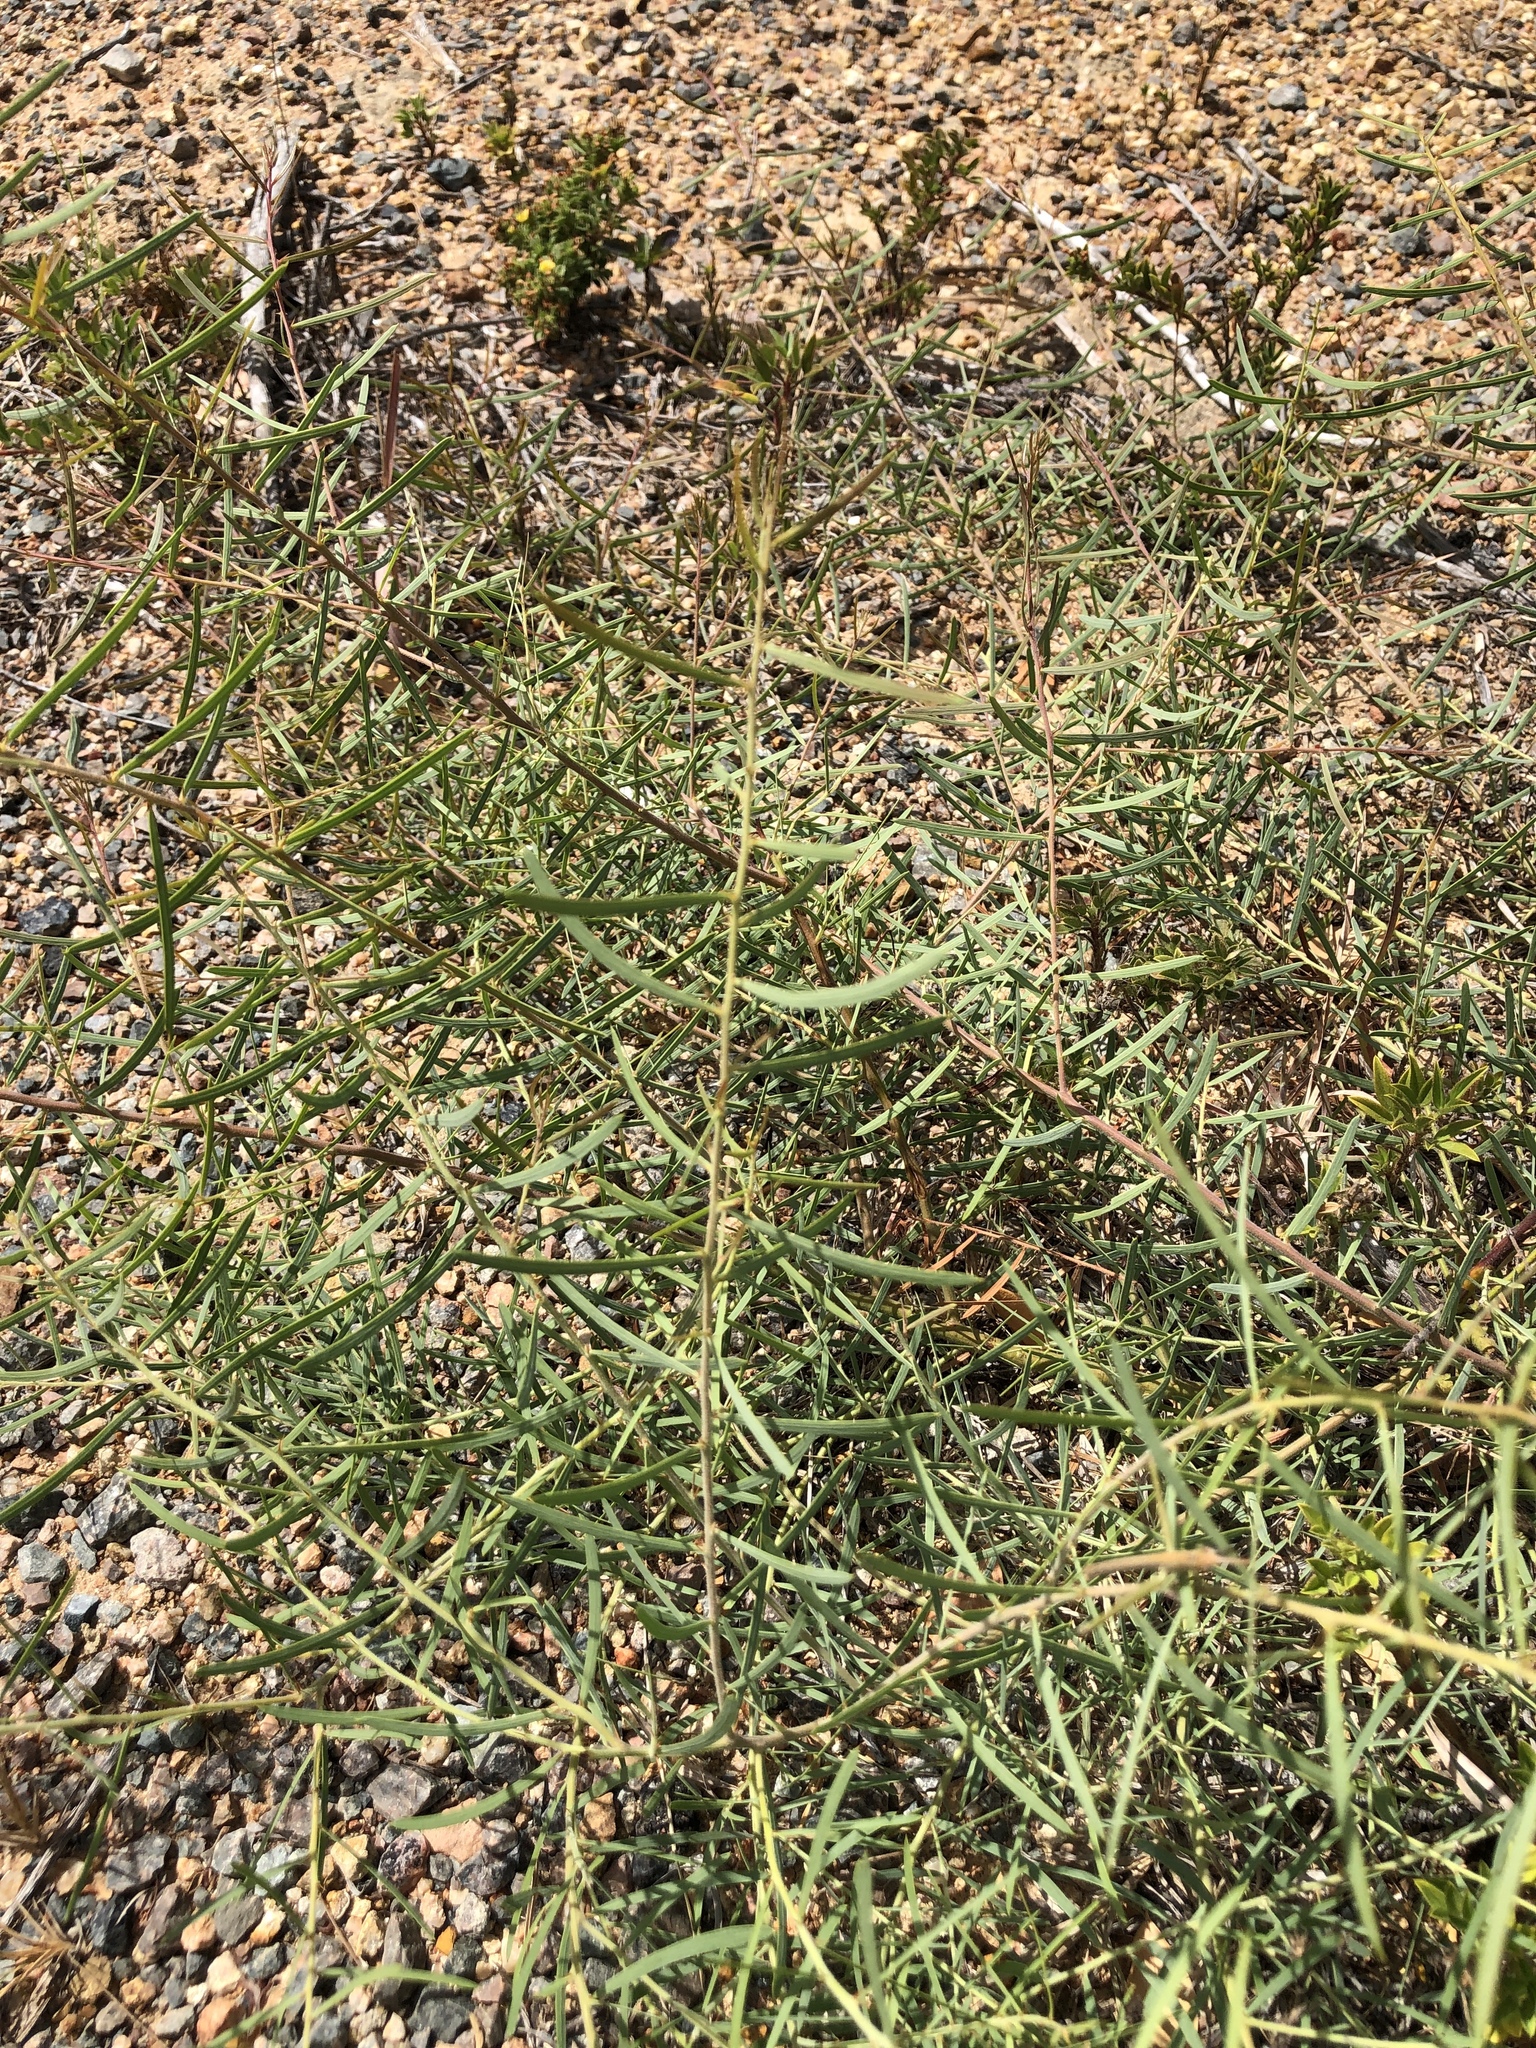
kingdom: Plantae
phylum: Tracheophyta
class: Magnoliopsida
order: Fabales
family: Fabaceae
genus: Acacia
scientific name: Acacia victoriae
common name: Bramble wattle
